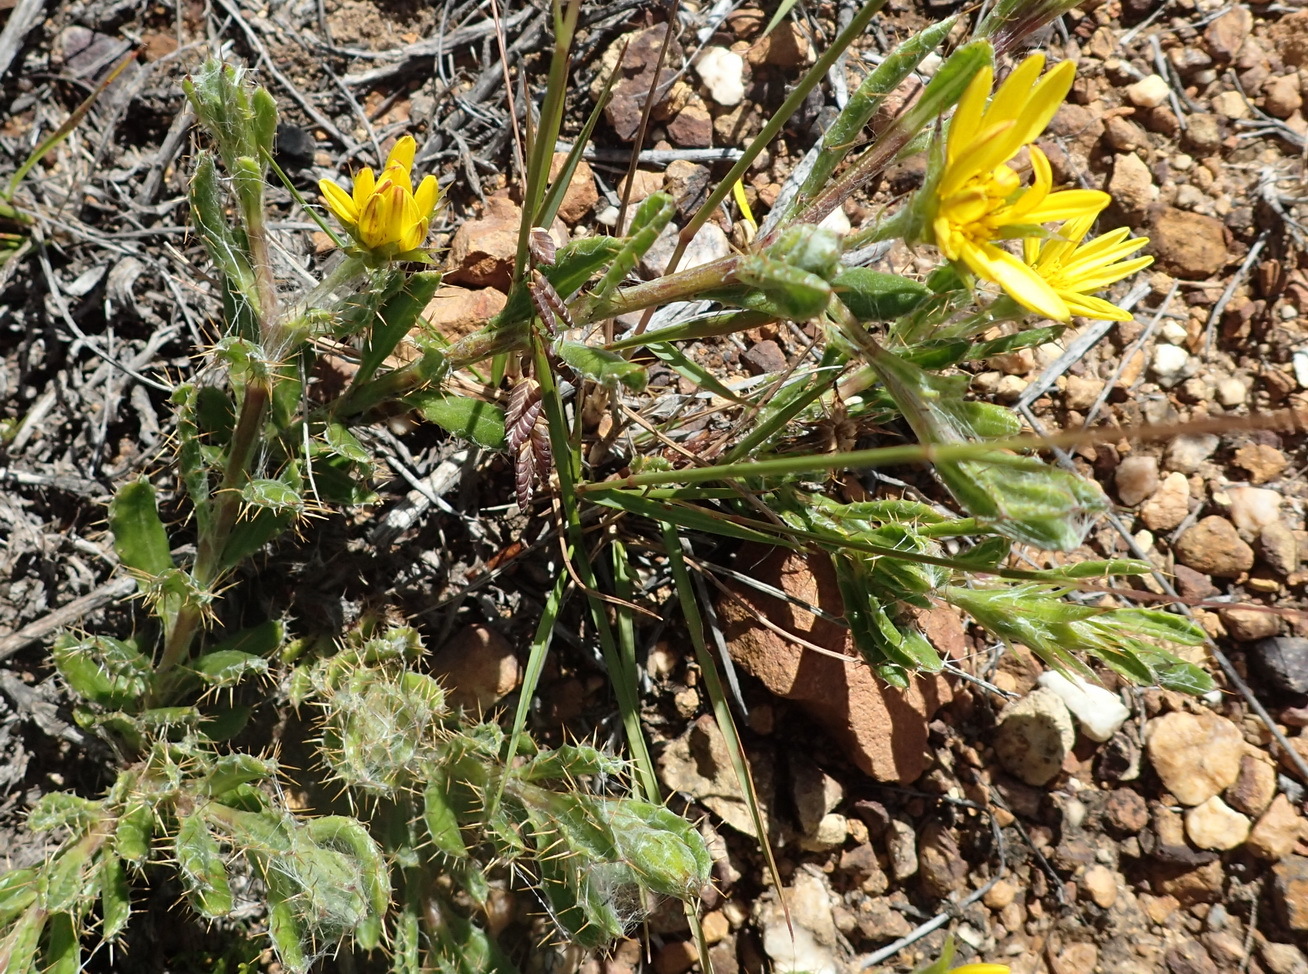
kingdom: Plantae
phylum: Tracheophyta
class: Magnoliopsida
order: Asterales
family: Asteraceae
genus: Cullumia
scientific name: Cullumia aculeata
